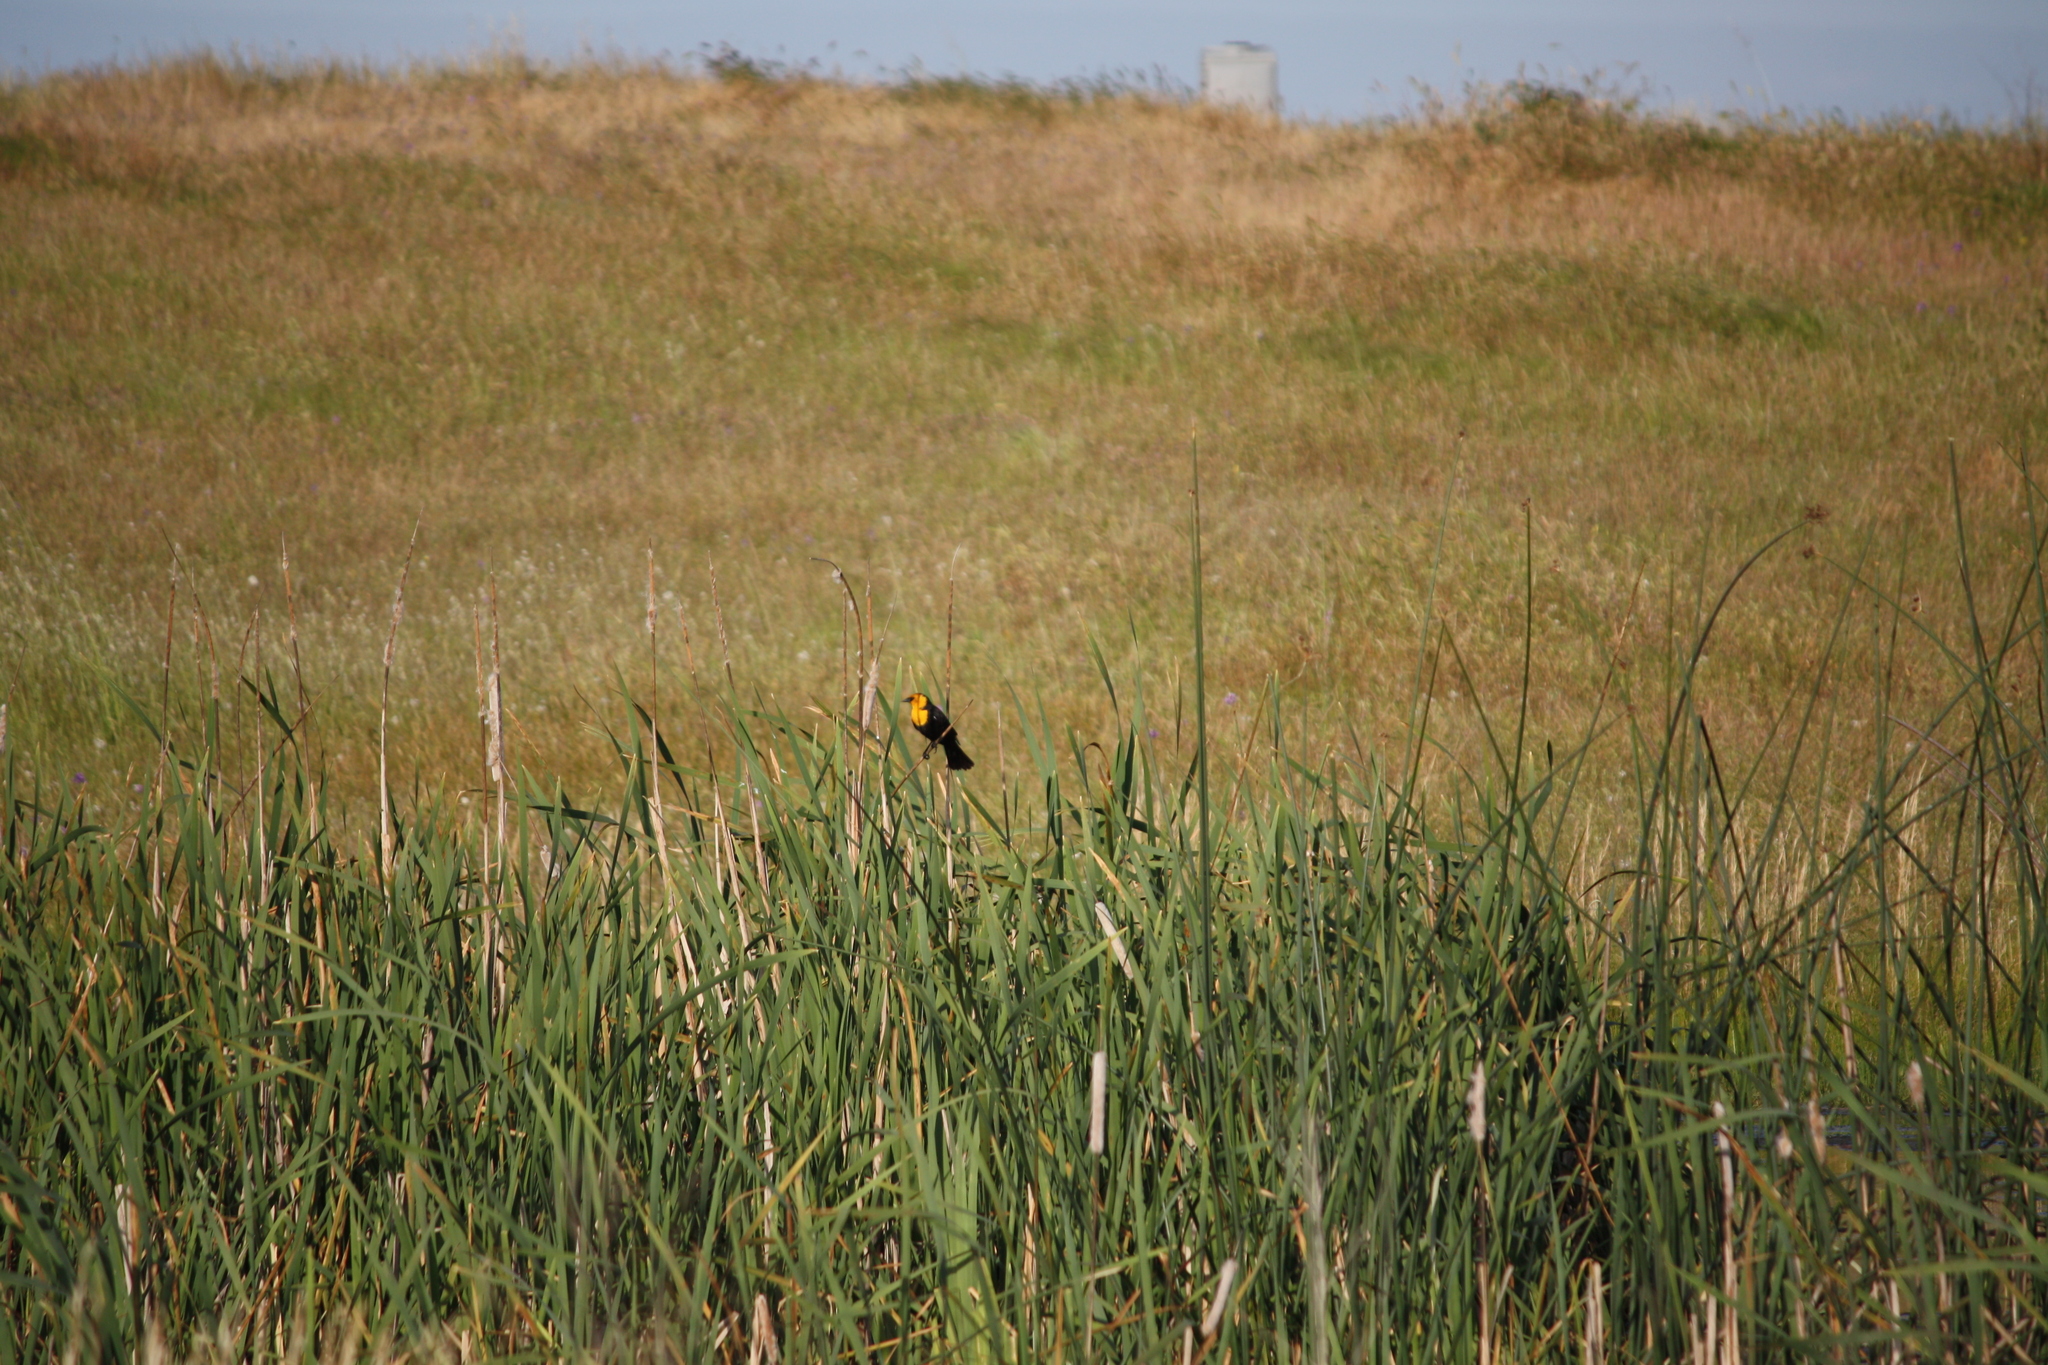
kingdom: Animalia
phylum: Chordata
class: Aves
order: Passeriformes
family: Icteridae
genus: Xanthocephalus
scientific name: Xanthocephalus xanthocephalus
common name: Yellow-headed blackbird
